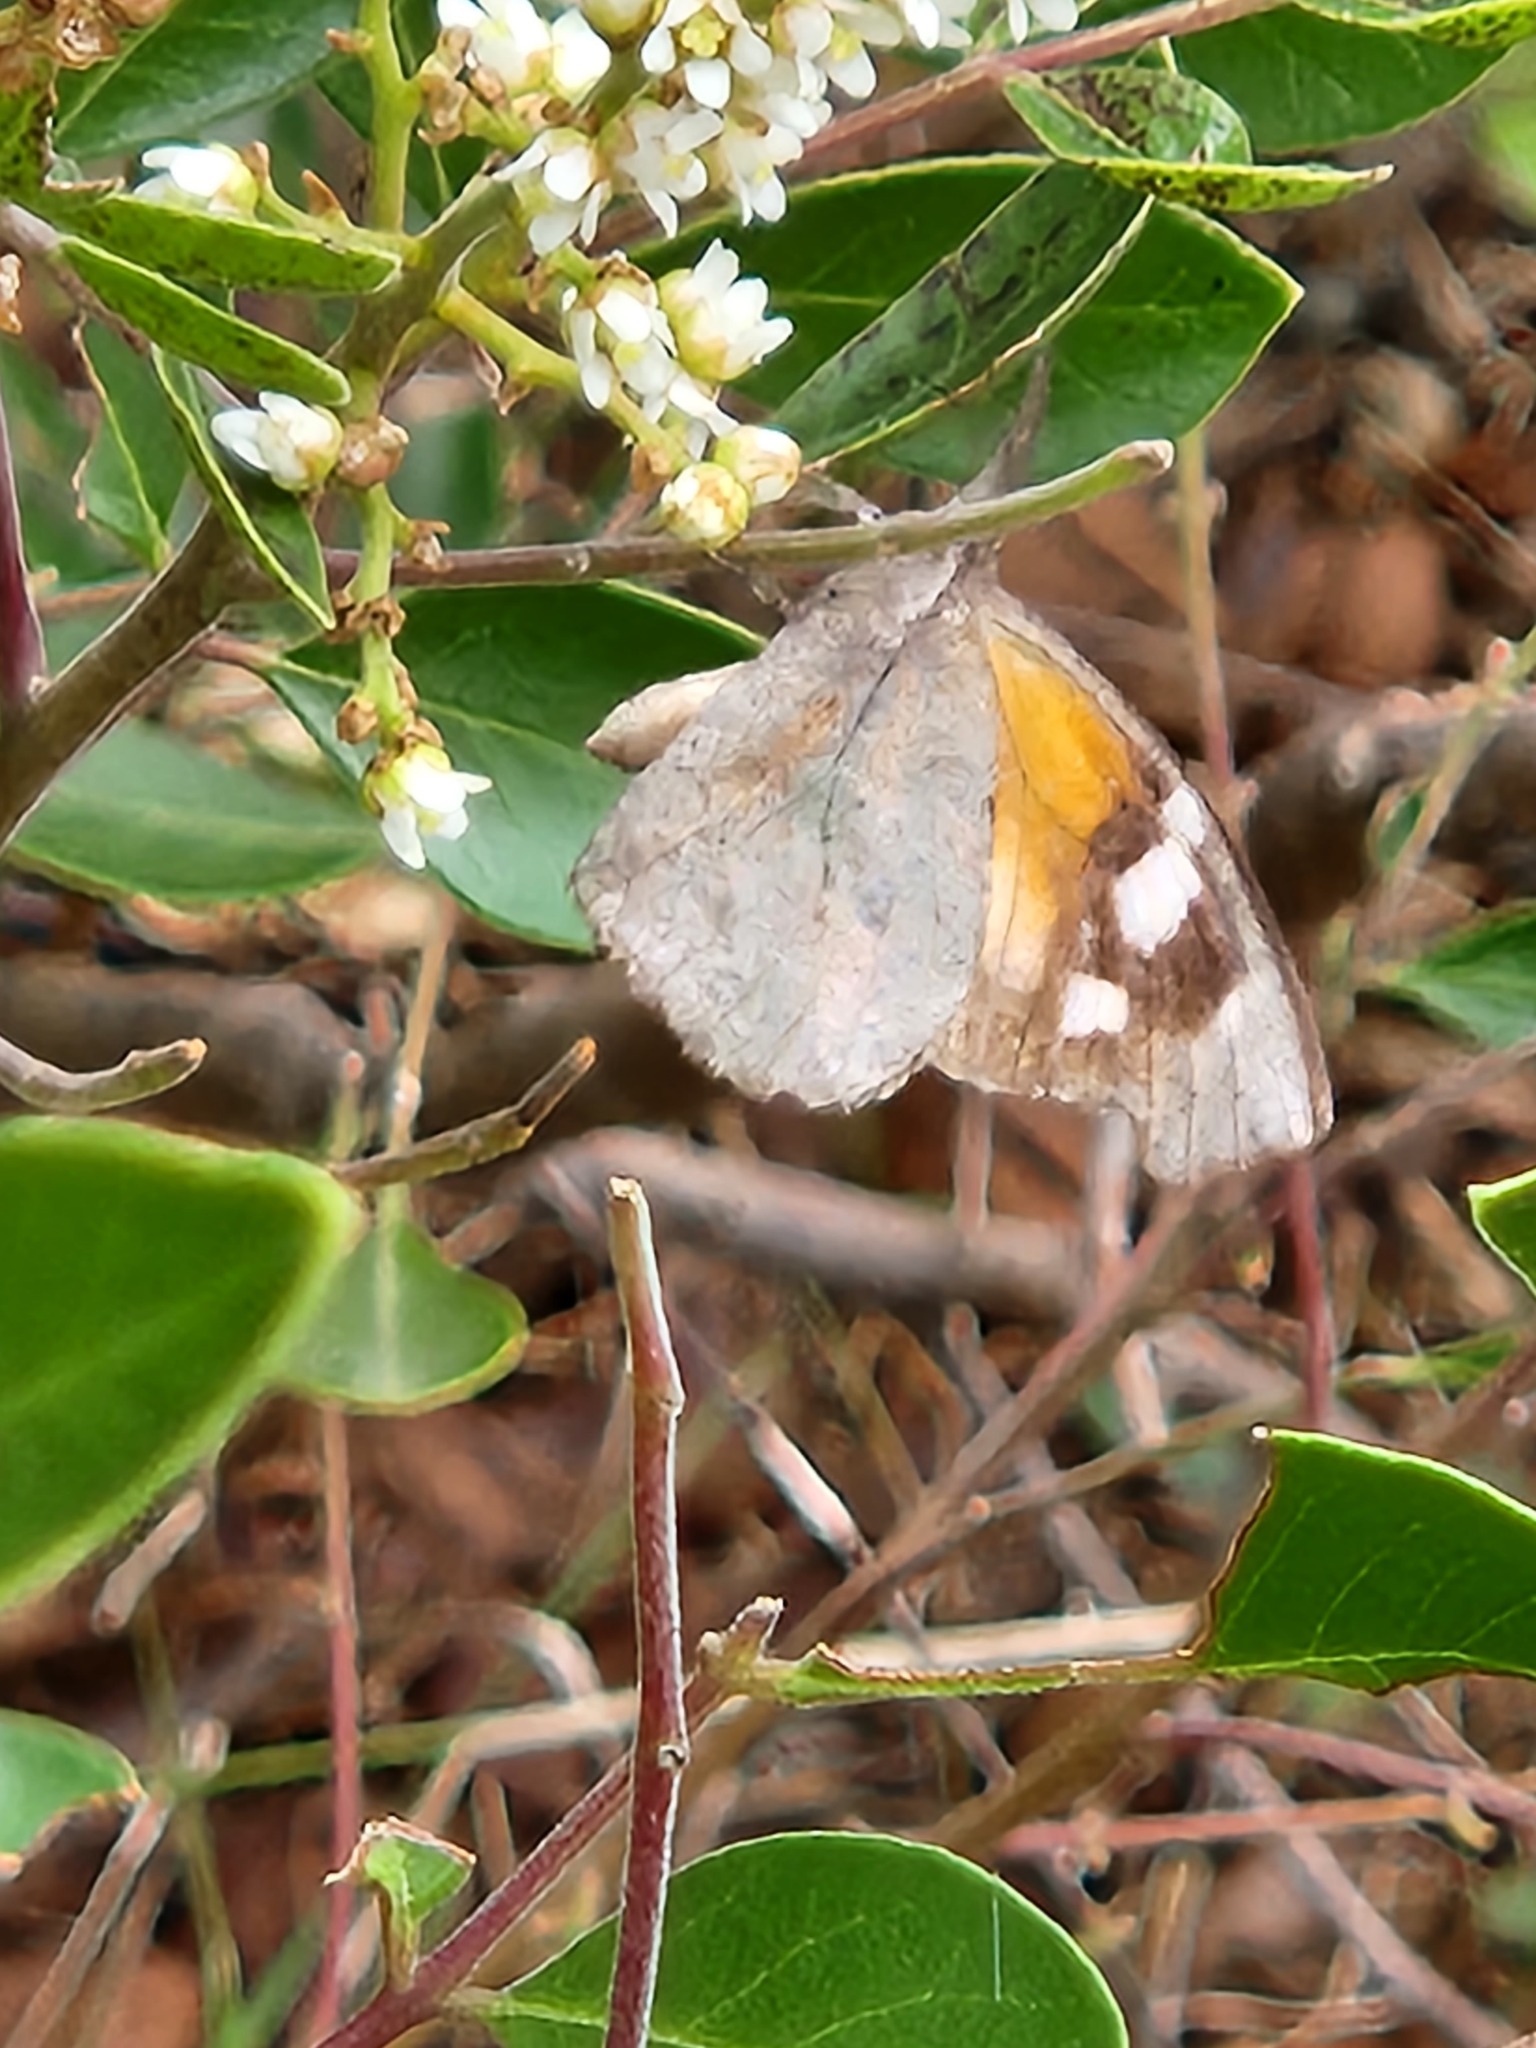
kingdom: Animalia
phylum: Arthropoda
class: Insecta
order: Lepidoptera
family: Nymphalidae
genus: Libytheana
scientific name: Libytheana carinenta
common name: American snout
